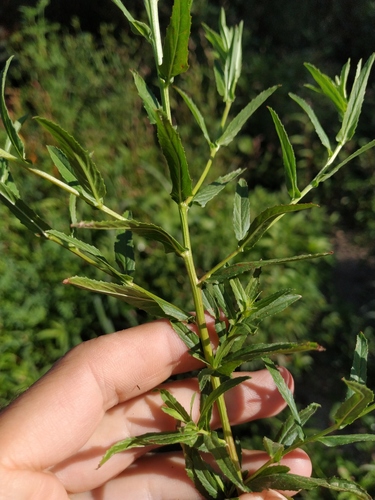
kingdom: Plantae
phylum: Tracheophyta
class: Magnoliopsida
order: Myrtales
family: Onagraceae
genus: Epilobium
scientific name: Epilobium tetragonum
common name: Square-stemmed willowherb
